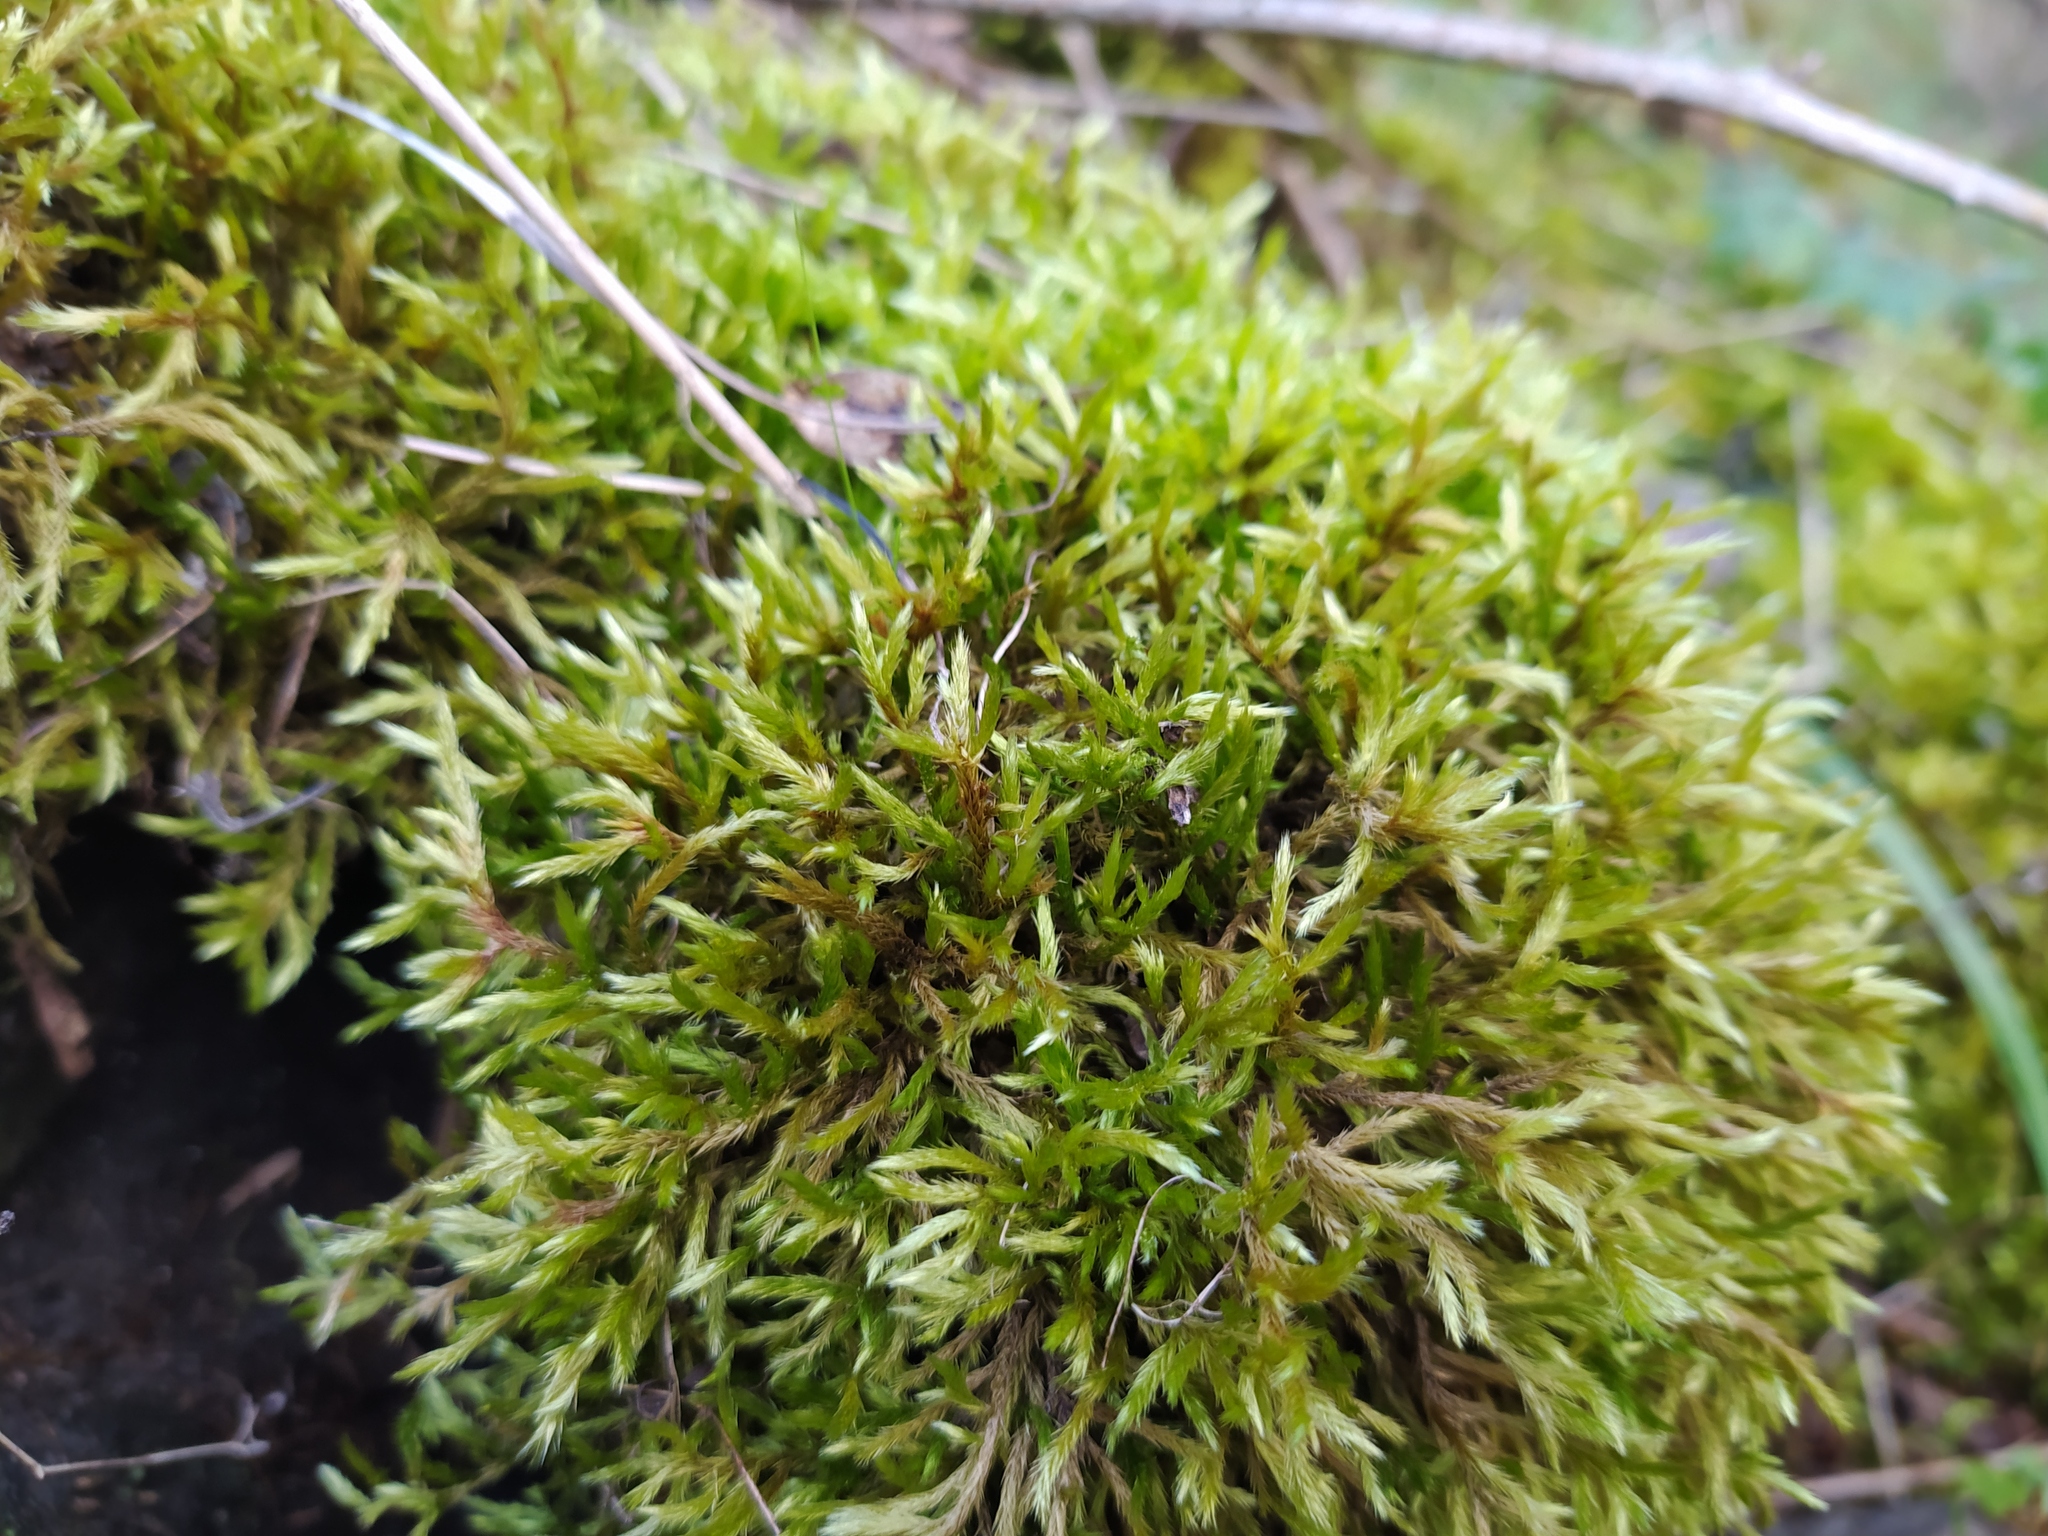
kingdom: Plantae
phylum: Bryophyta
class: Bryopsida
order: Hypnales
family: Brachytheciaceae
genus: Homalothecium
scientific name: Homalothecium lutescens
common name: Yellow feather-moss
